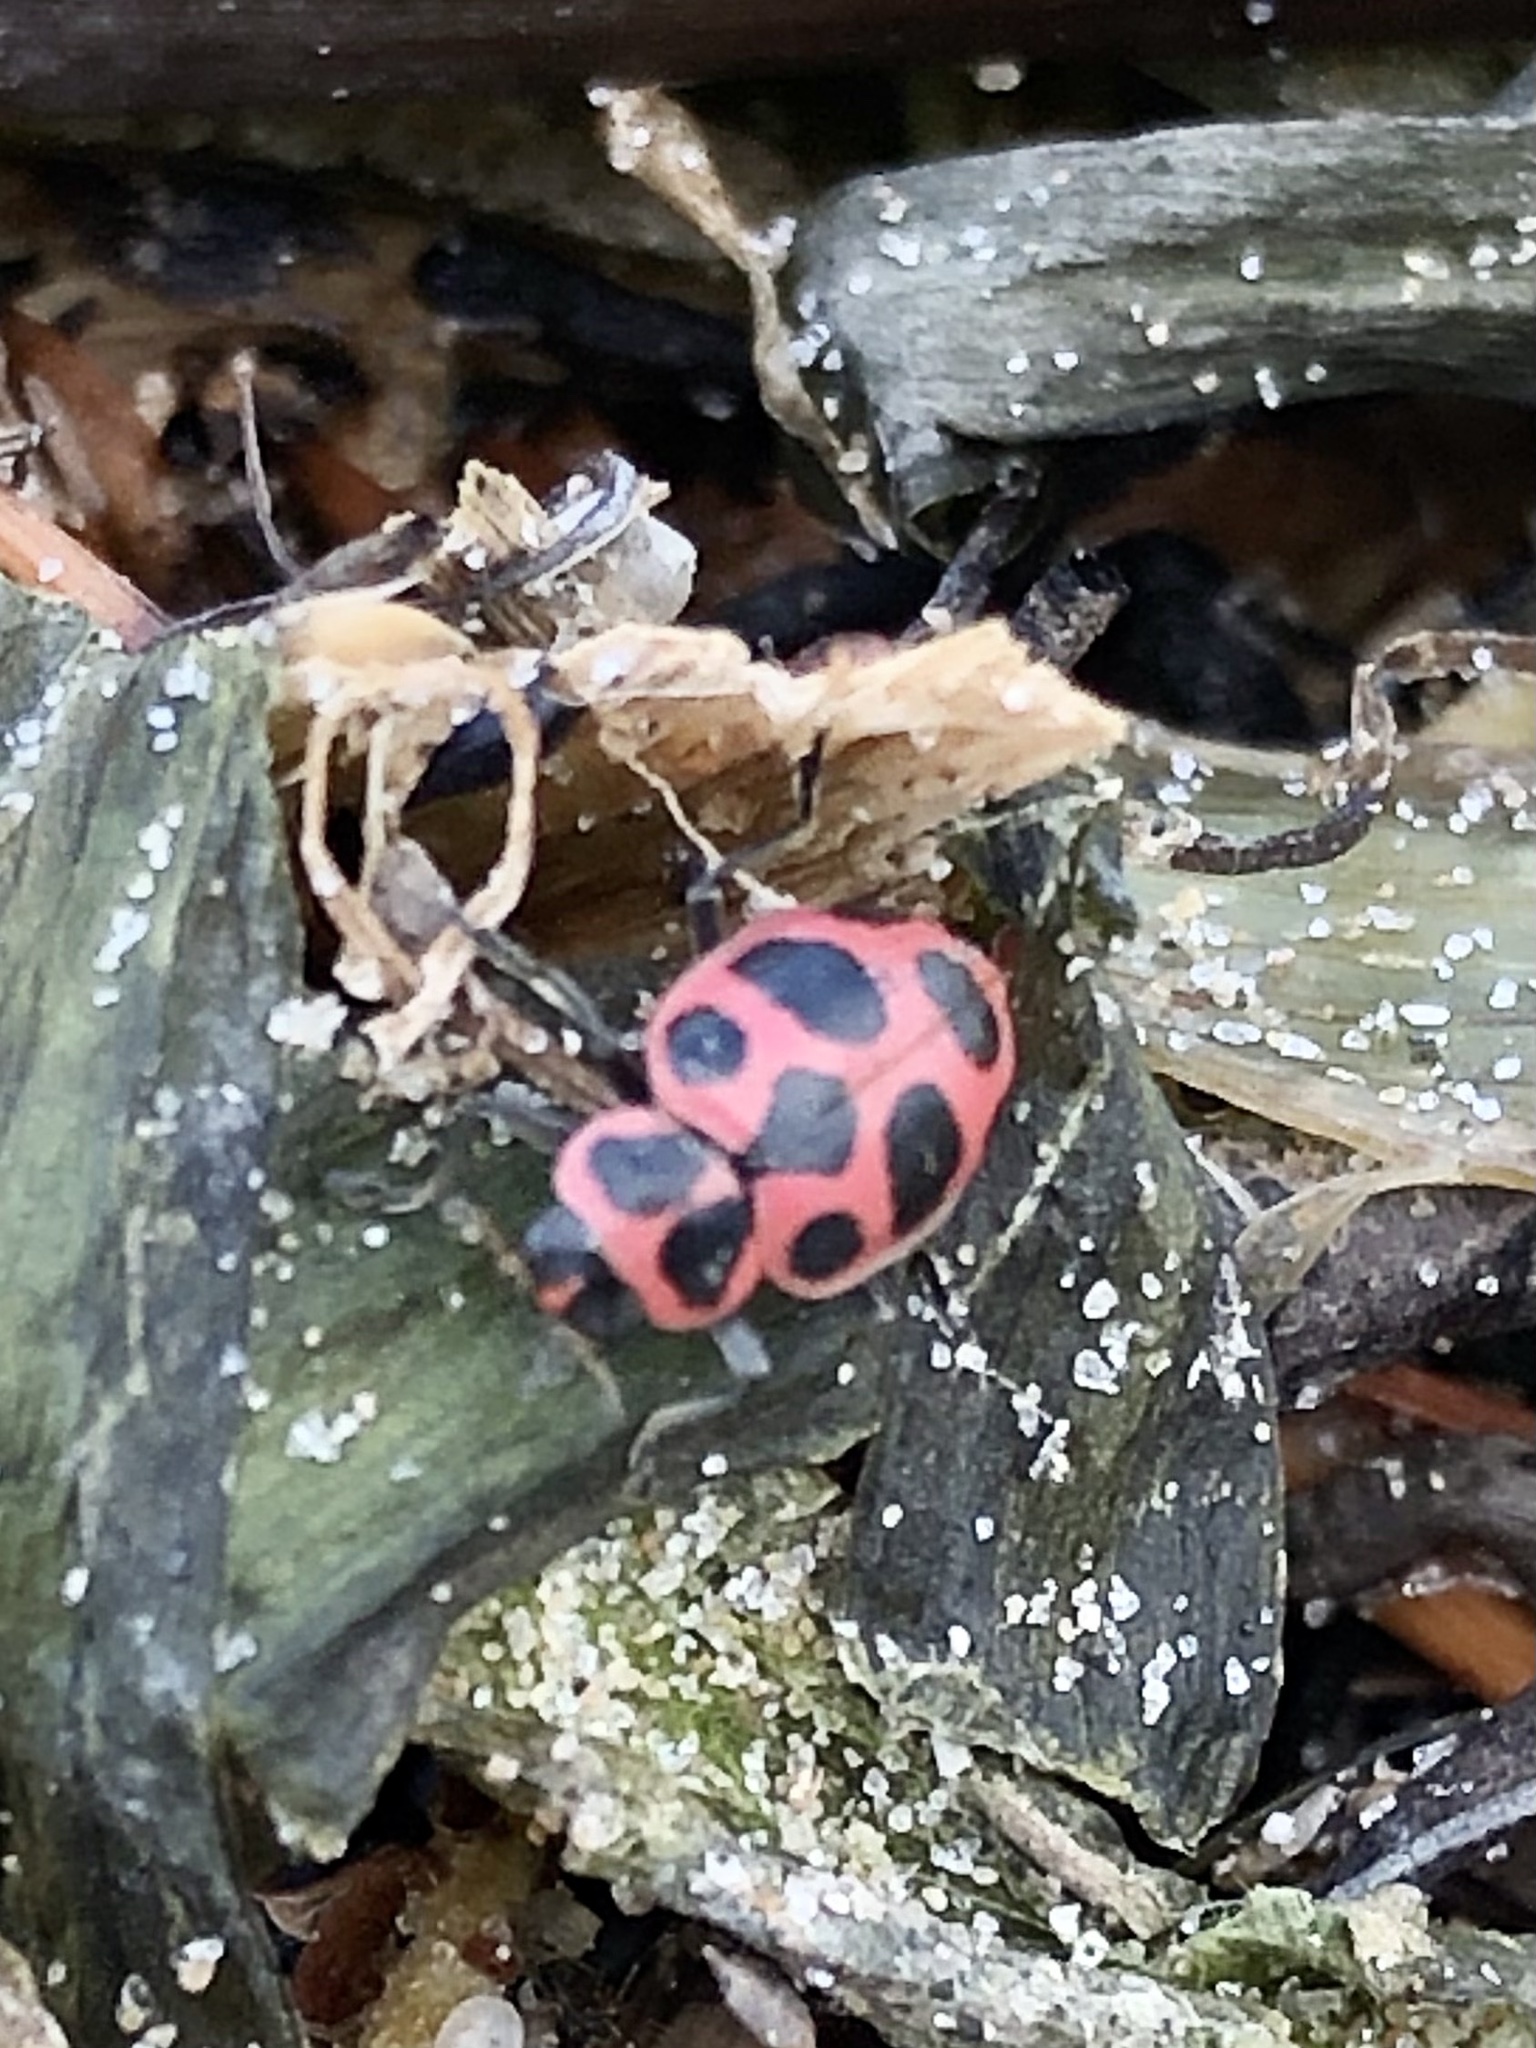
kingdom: Animalia
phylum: Arthropoda
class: Insecta
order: Coleoptera
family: Coccinellidae
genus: Coleomegilla
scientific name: Coleomegilla maculata
